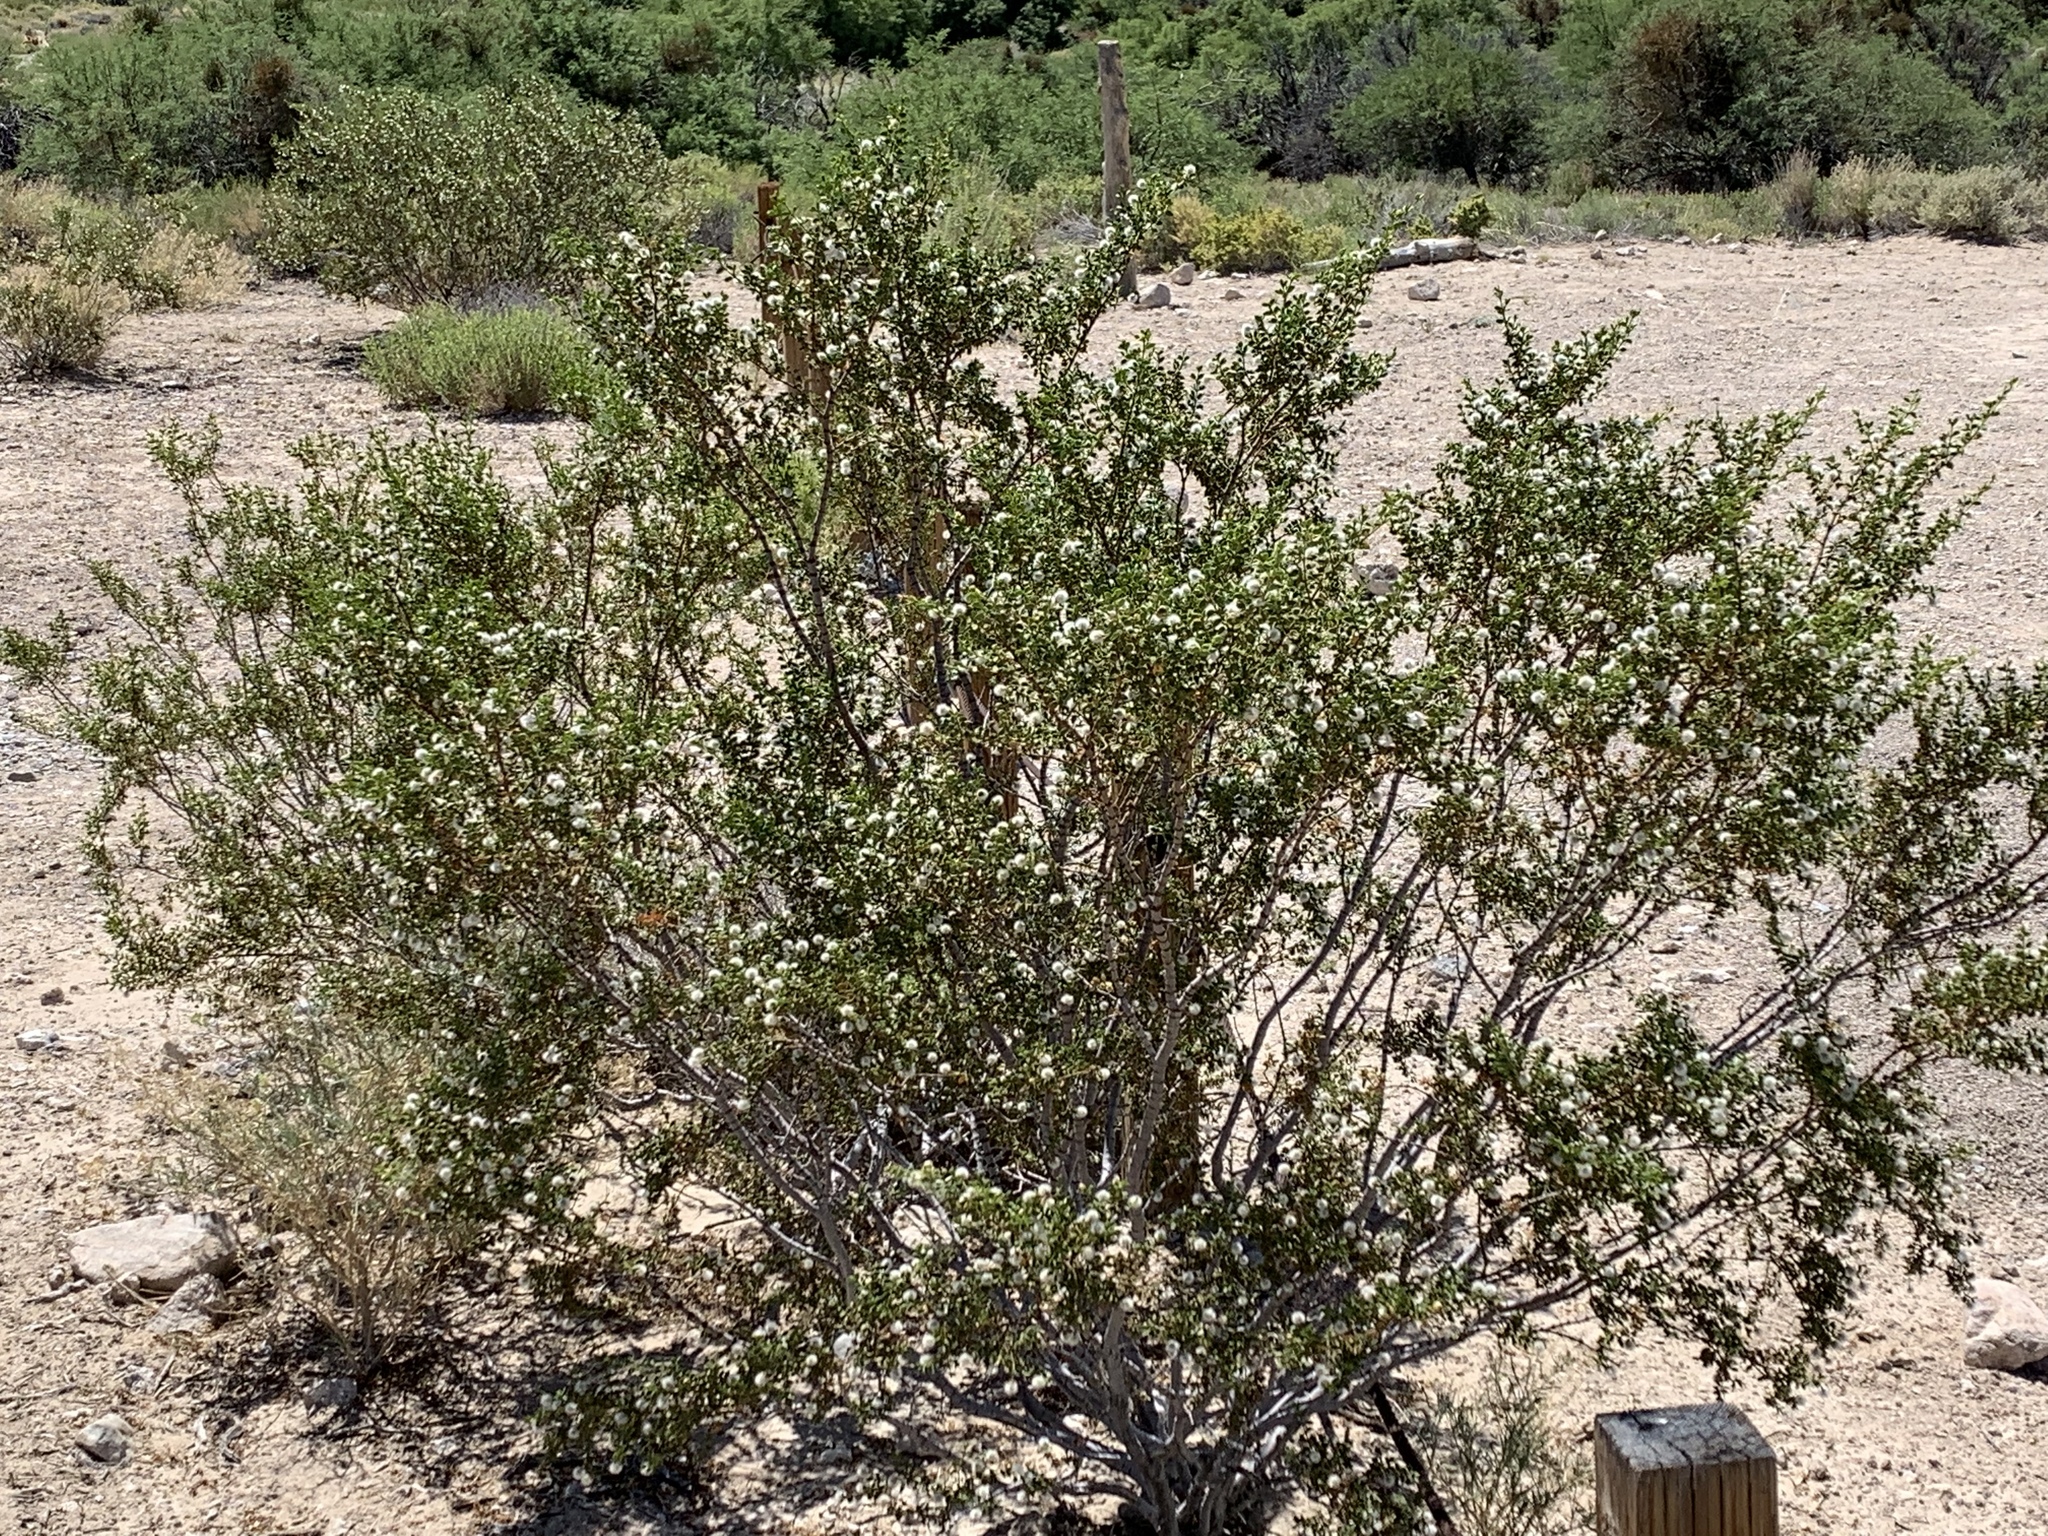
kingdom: Plantae
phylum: Tracheophyta
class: Magnoliopsida
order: Zygophyllales
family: Zygophyllaceae
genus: Larrea
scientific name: Larrea tridentata
